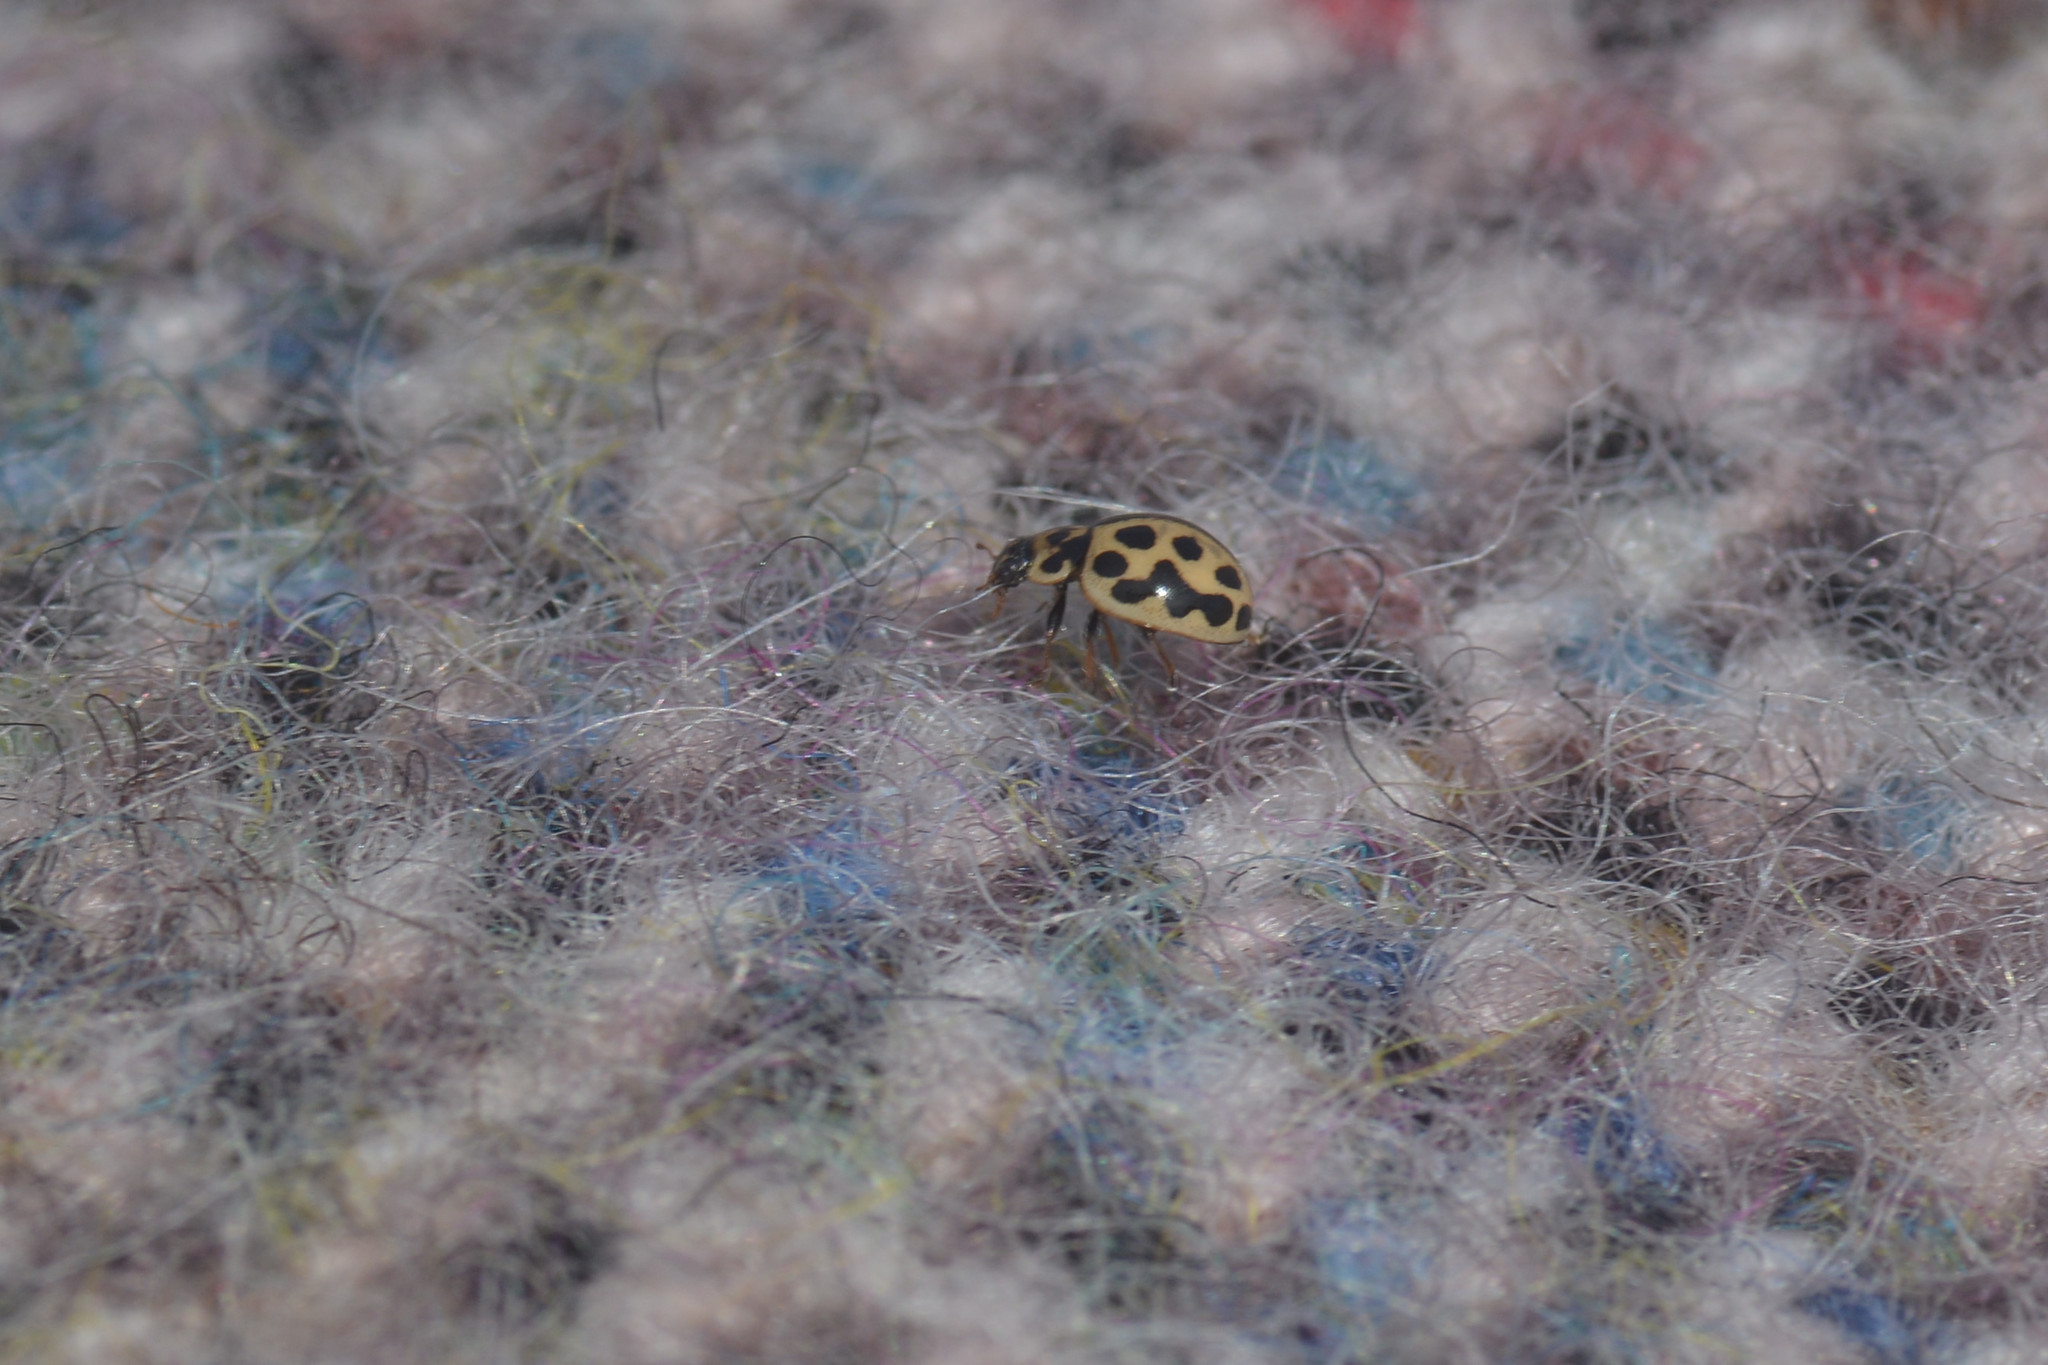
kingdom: Animalia
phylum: Arthropoda
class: Insecta
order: Coleoptera
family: Coccinellidae
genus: Tytthaspis
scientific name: Tytthaspis sedecimpunctata
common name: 16-spot ladybird
